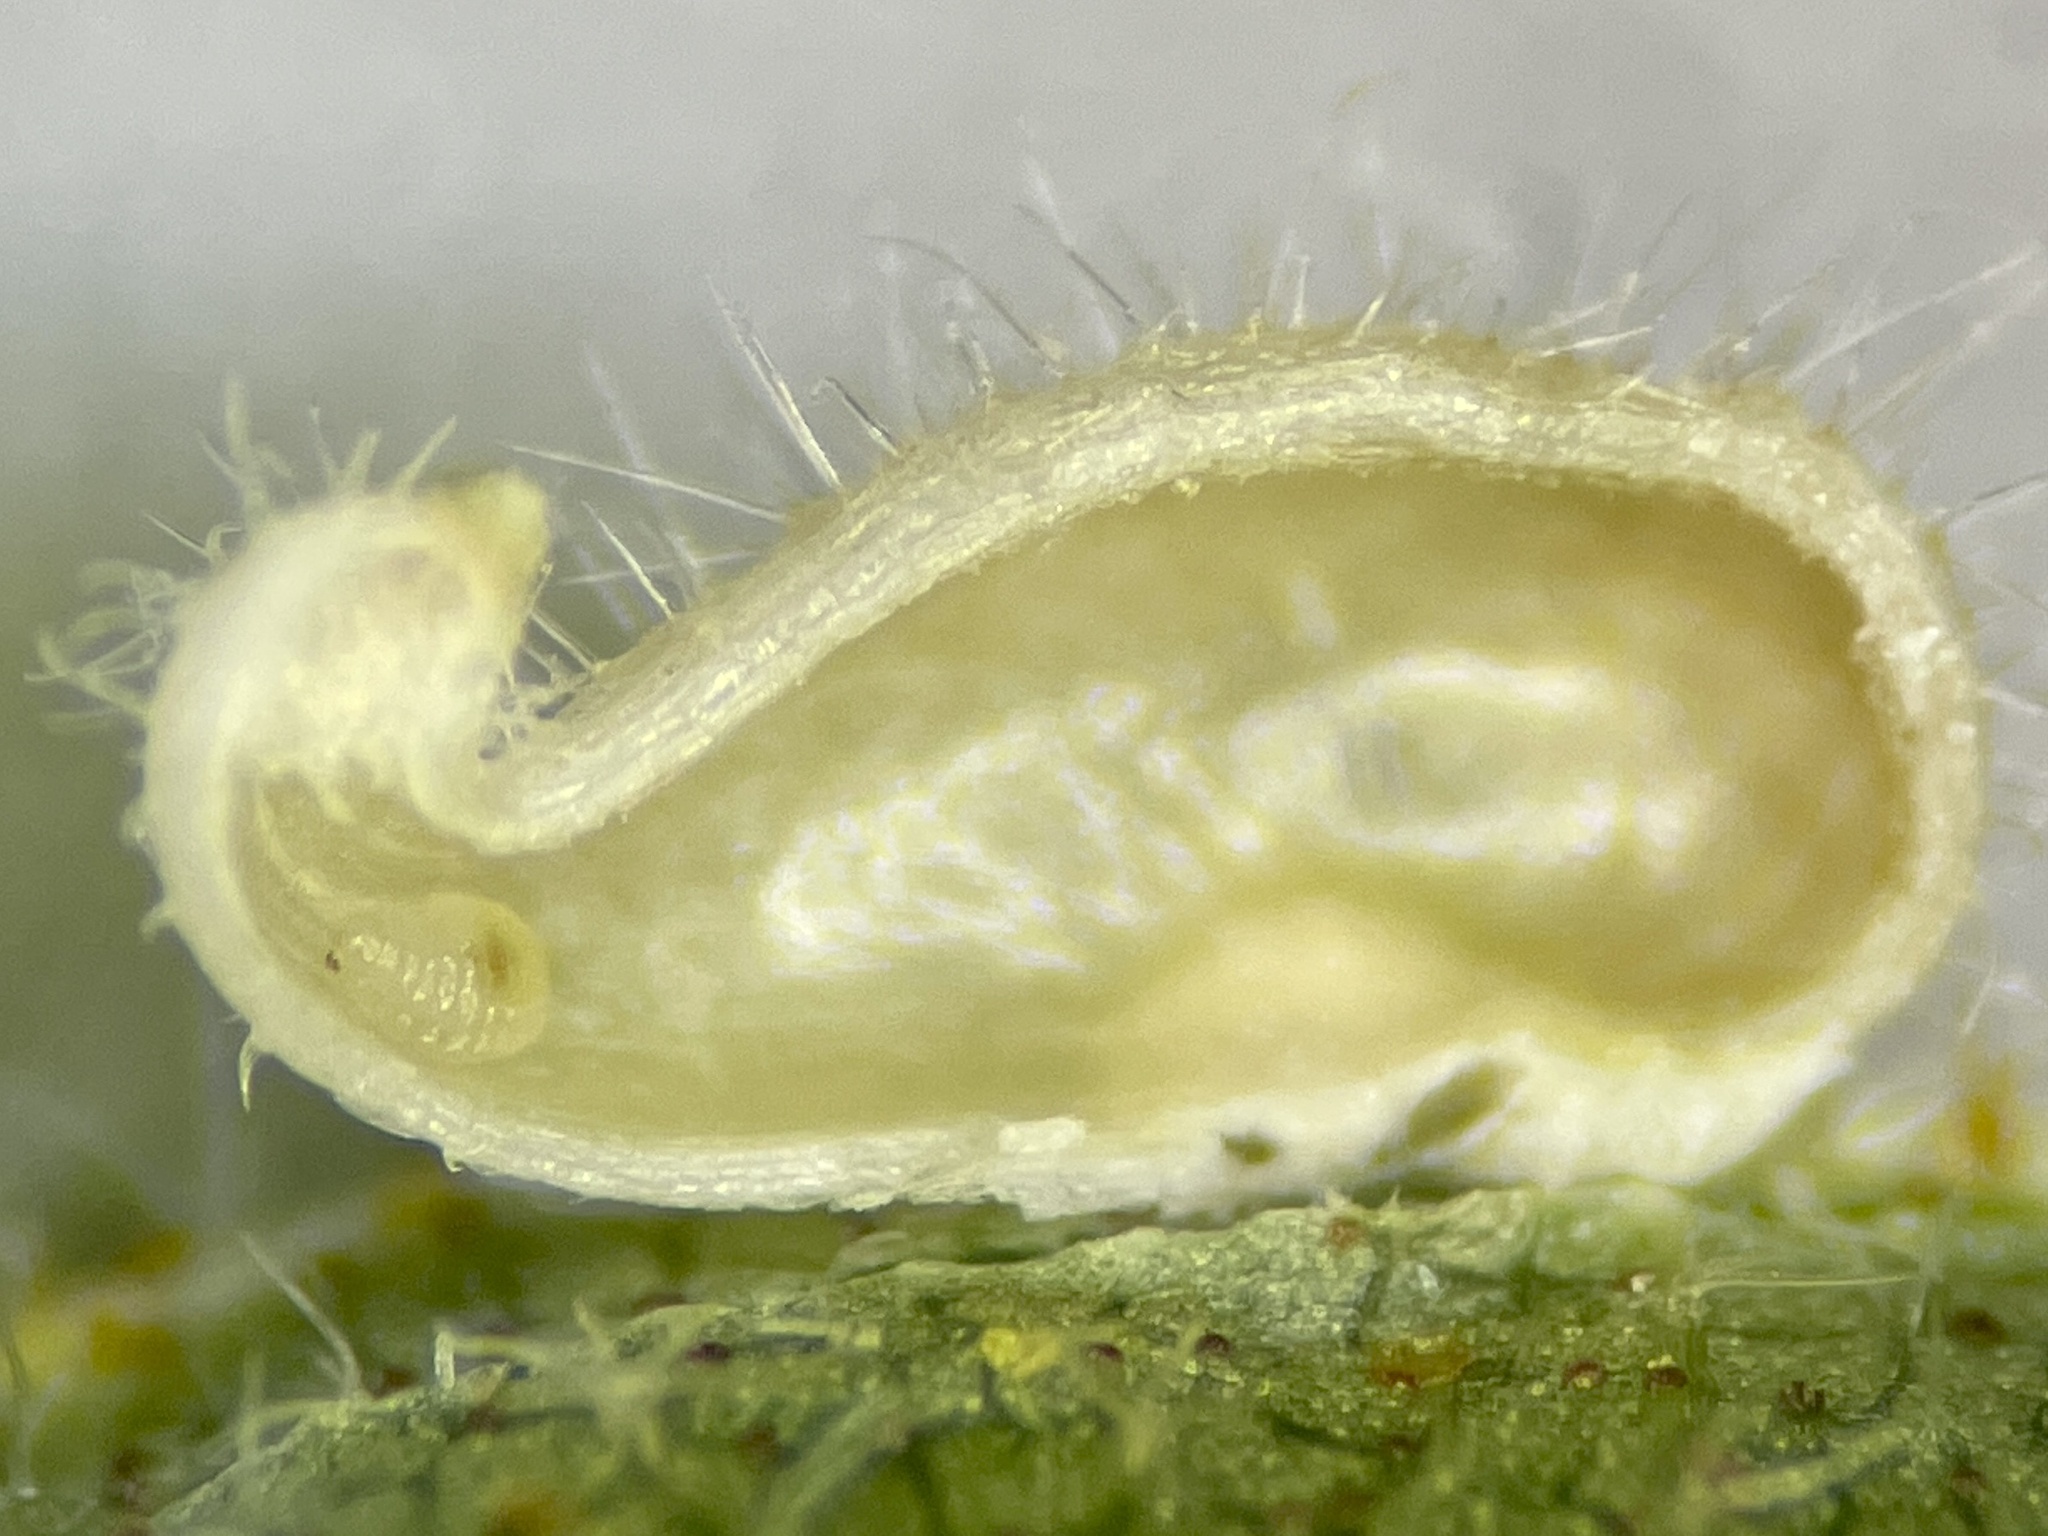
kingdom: Animalia
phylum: Arthropoda
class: Insecta
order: Diptera
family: Cecidomyiidae
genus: Caryomyia
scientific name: Caryomyia eumaris
